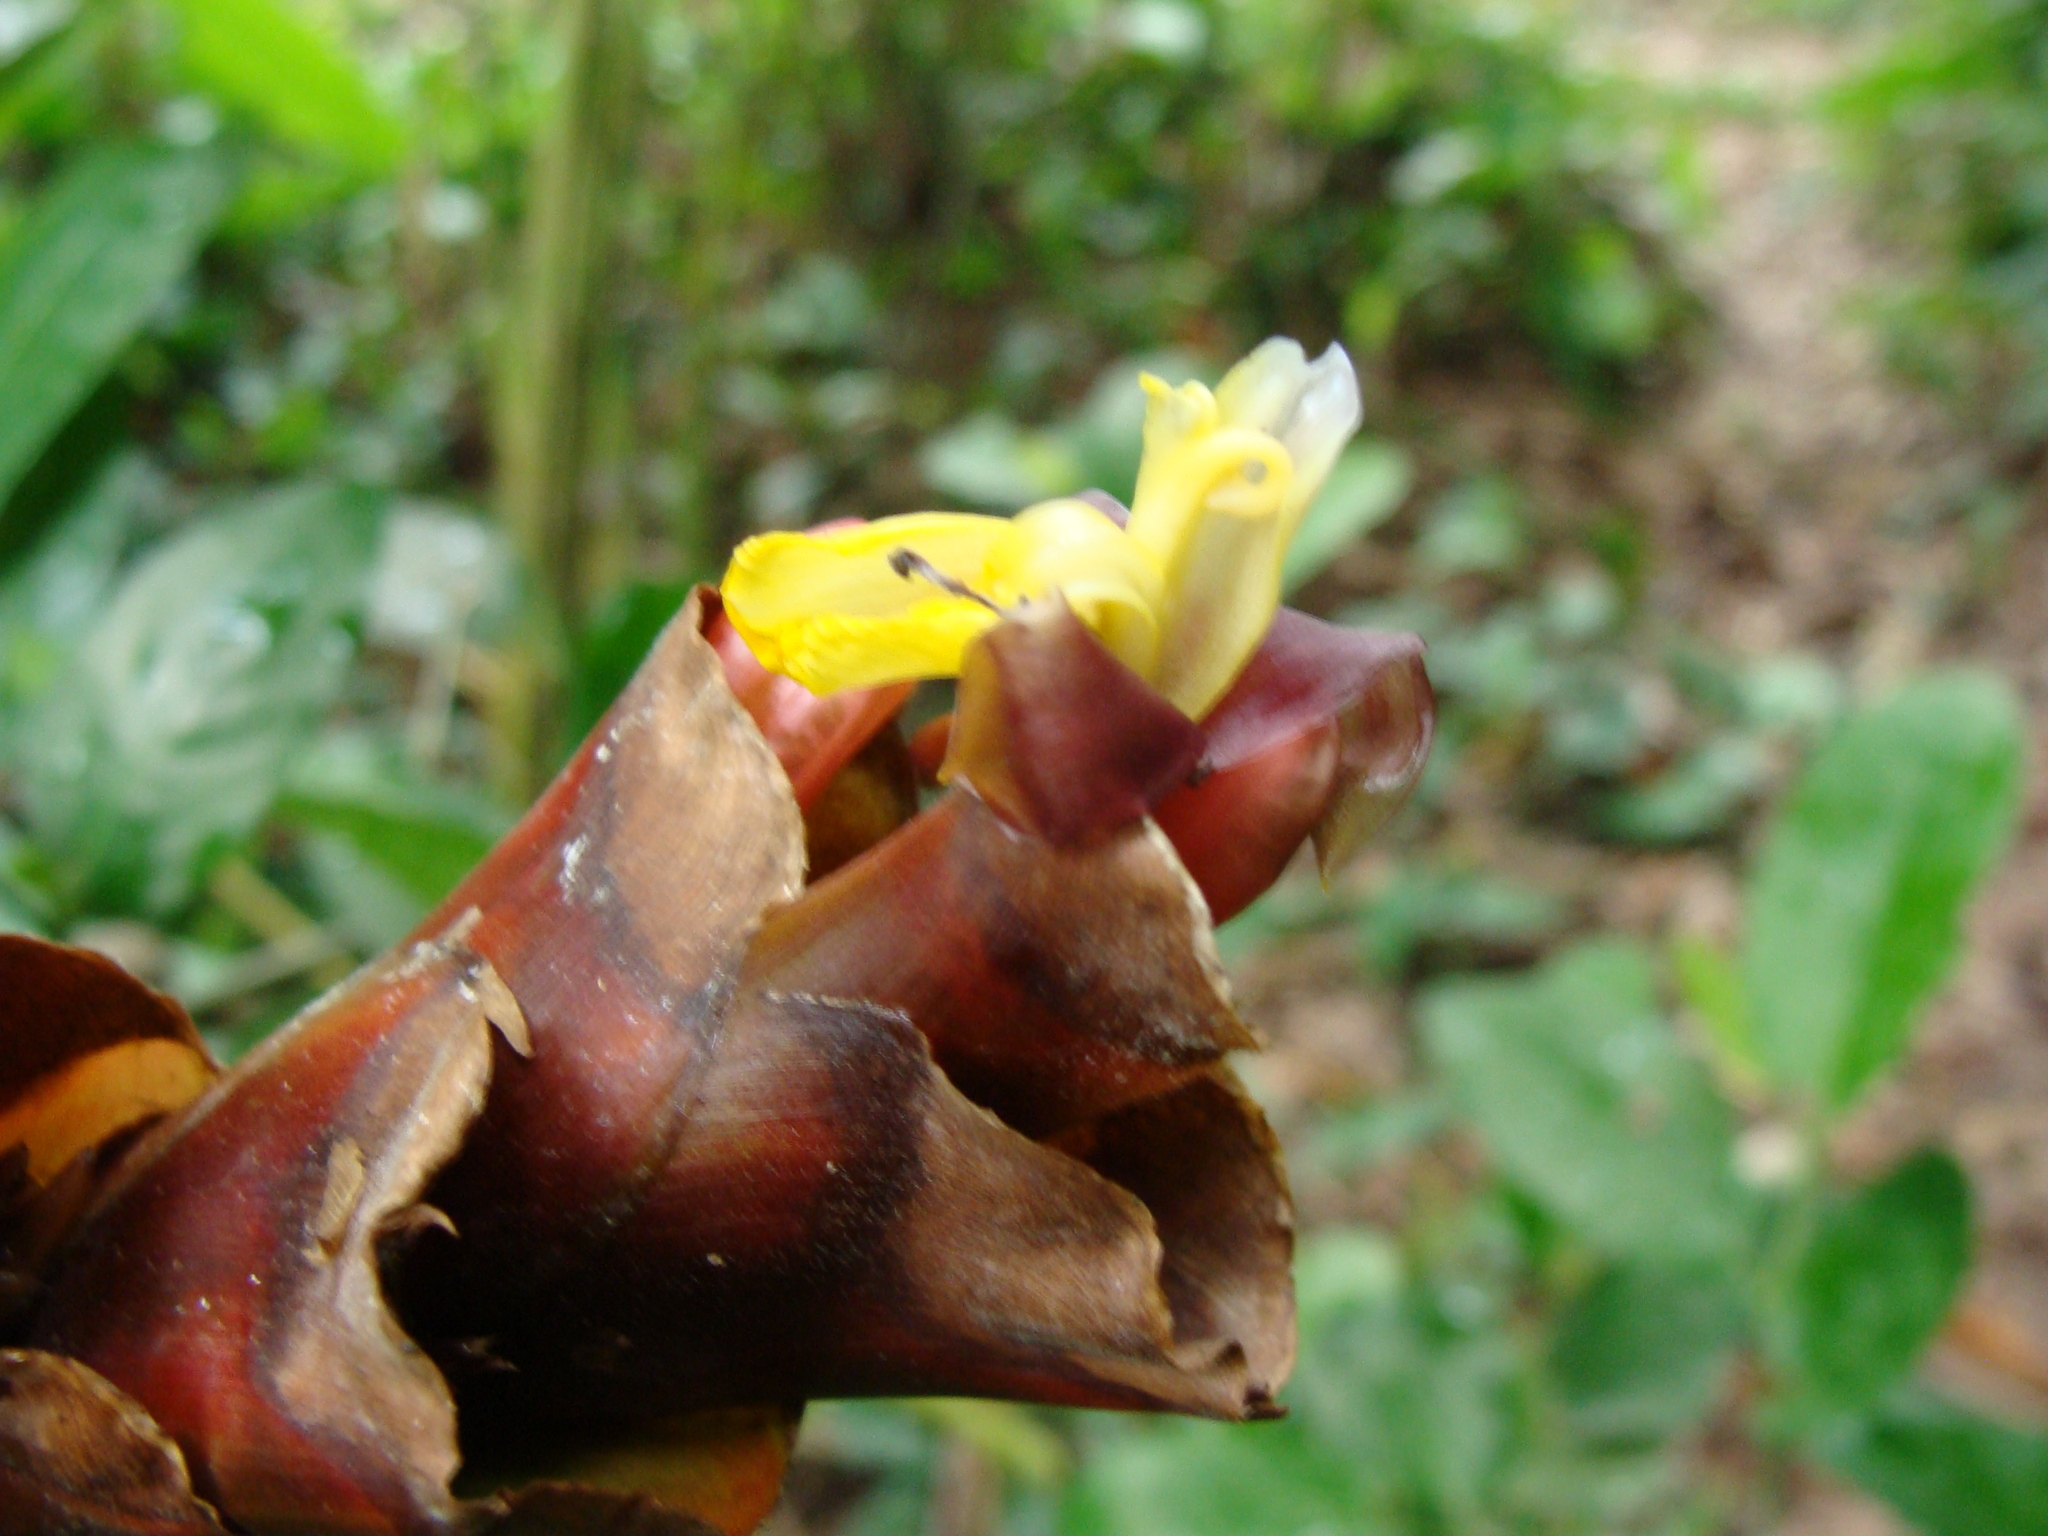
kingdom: Plantae
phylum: Tracheophyta
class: Liliopsida
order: Zingiberales
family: Marantaceae
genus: Calathea
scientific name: Calathea lutea
